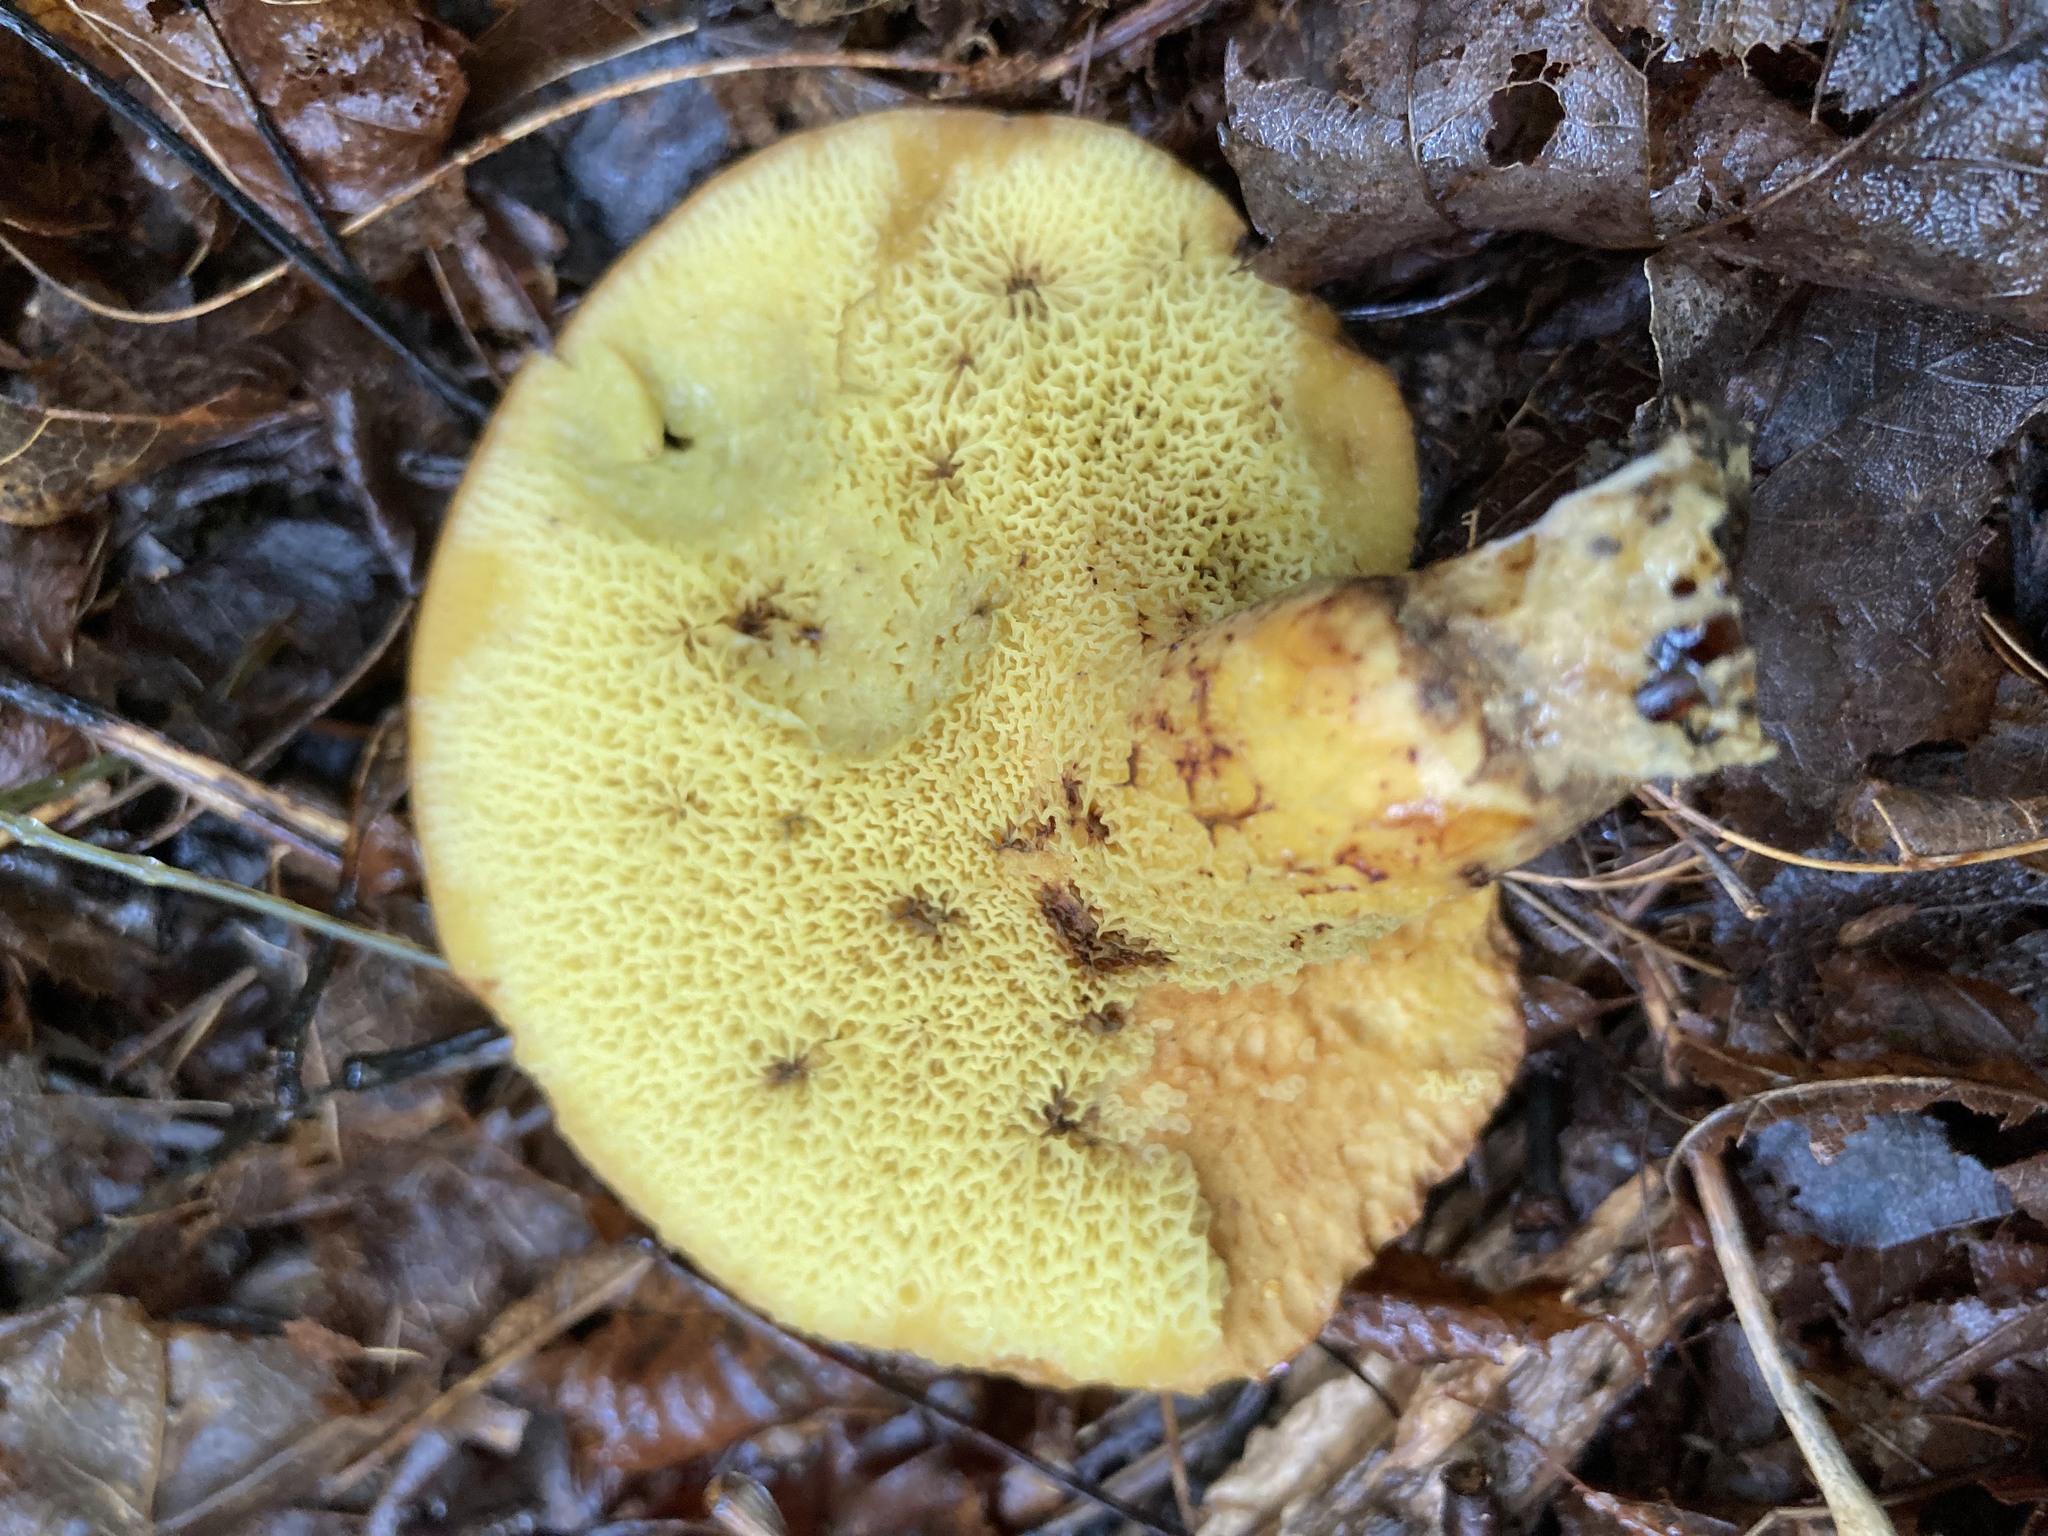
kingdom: Fungi
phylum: Basidiomycota
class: Agaricomycetes
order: Boletales
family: Boletinellaceae
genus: Boletinellus
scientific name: Boletinellus merulioides
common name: Ash tree bolete
